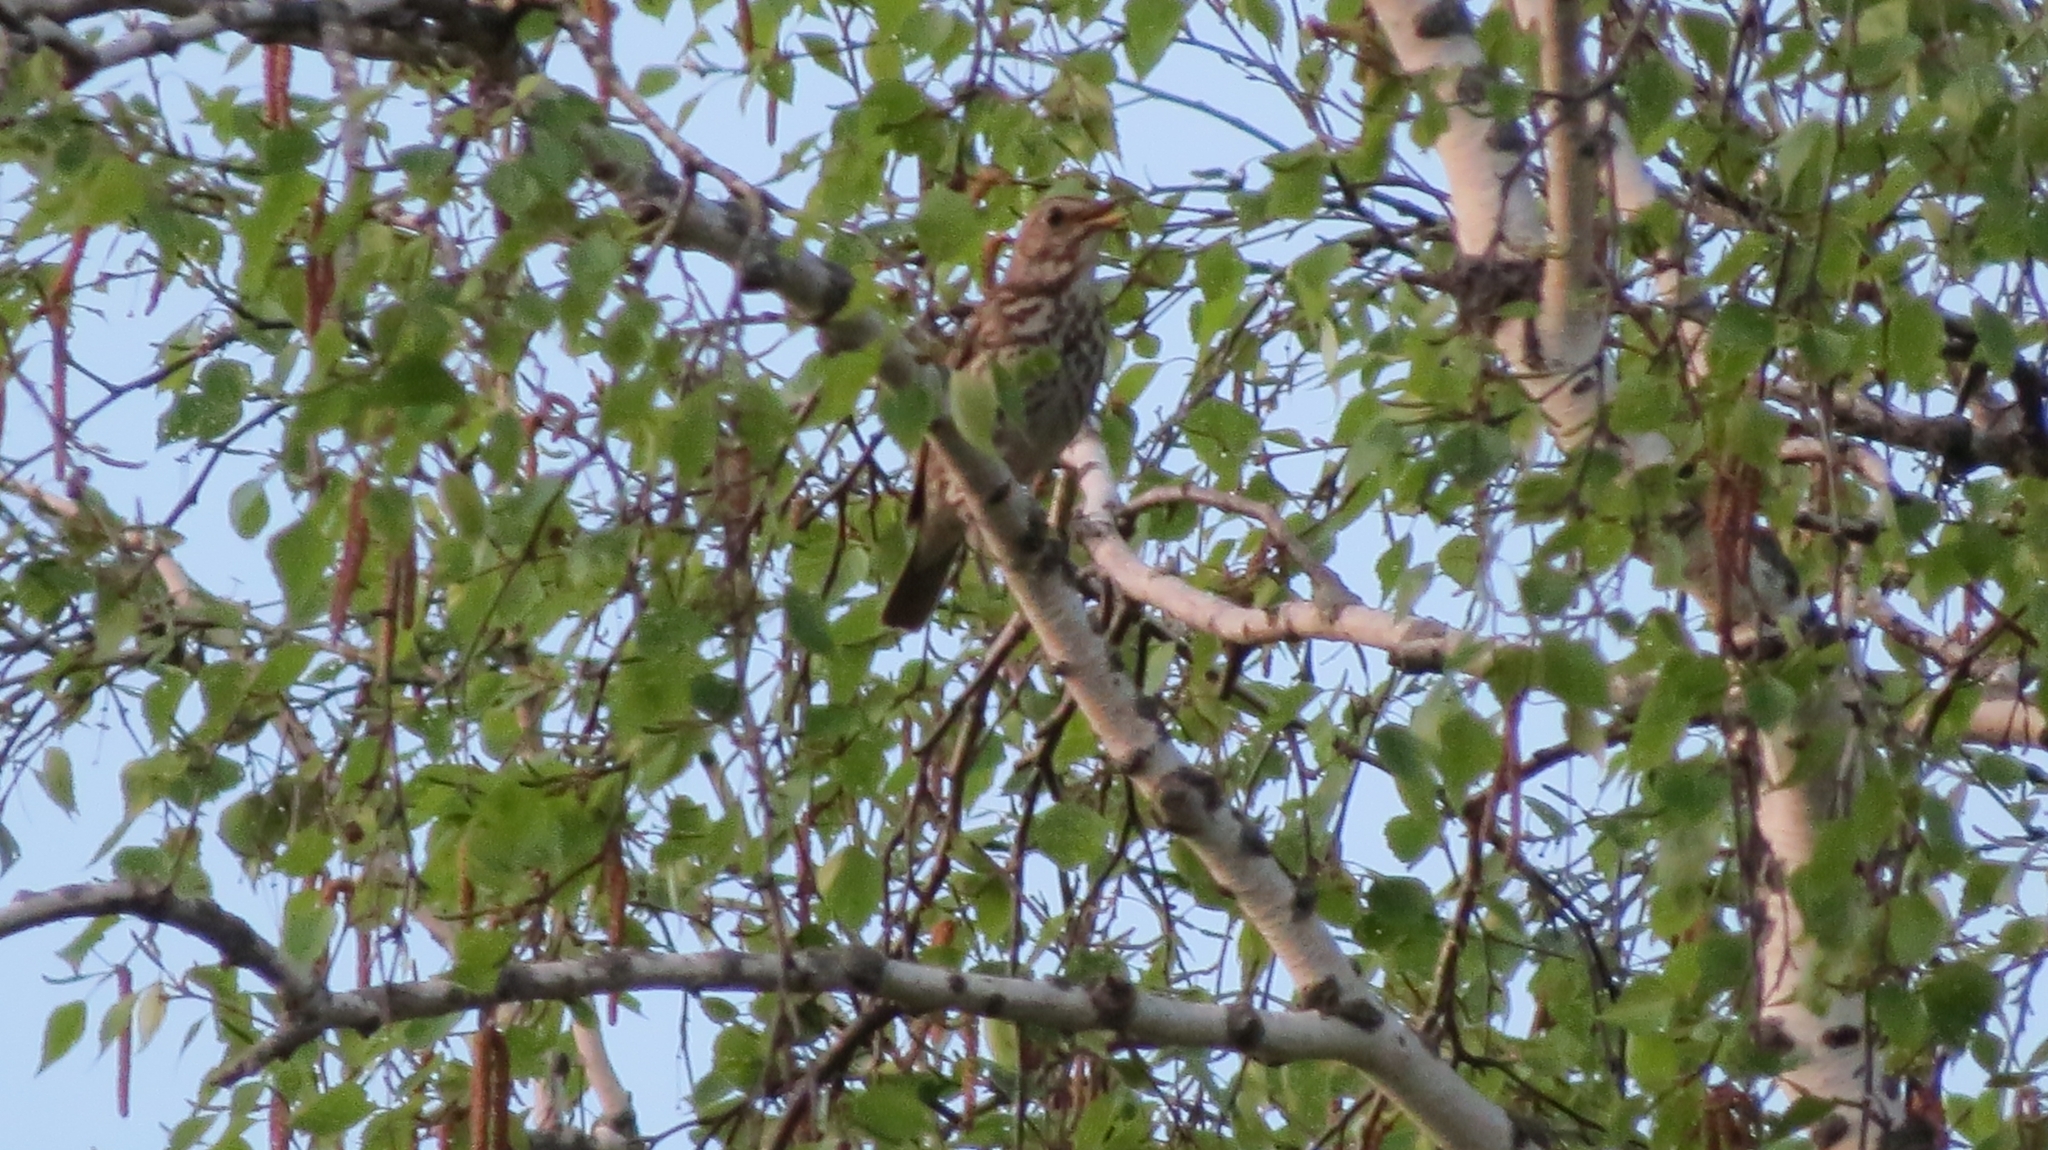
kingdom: Animalia
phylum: Chordata
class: Aves
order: Passeriformes
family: Turdidae
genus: Turdus
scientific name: Turdus philomelos
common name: Song thrush
